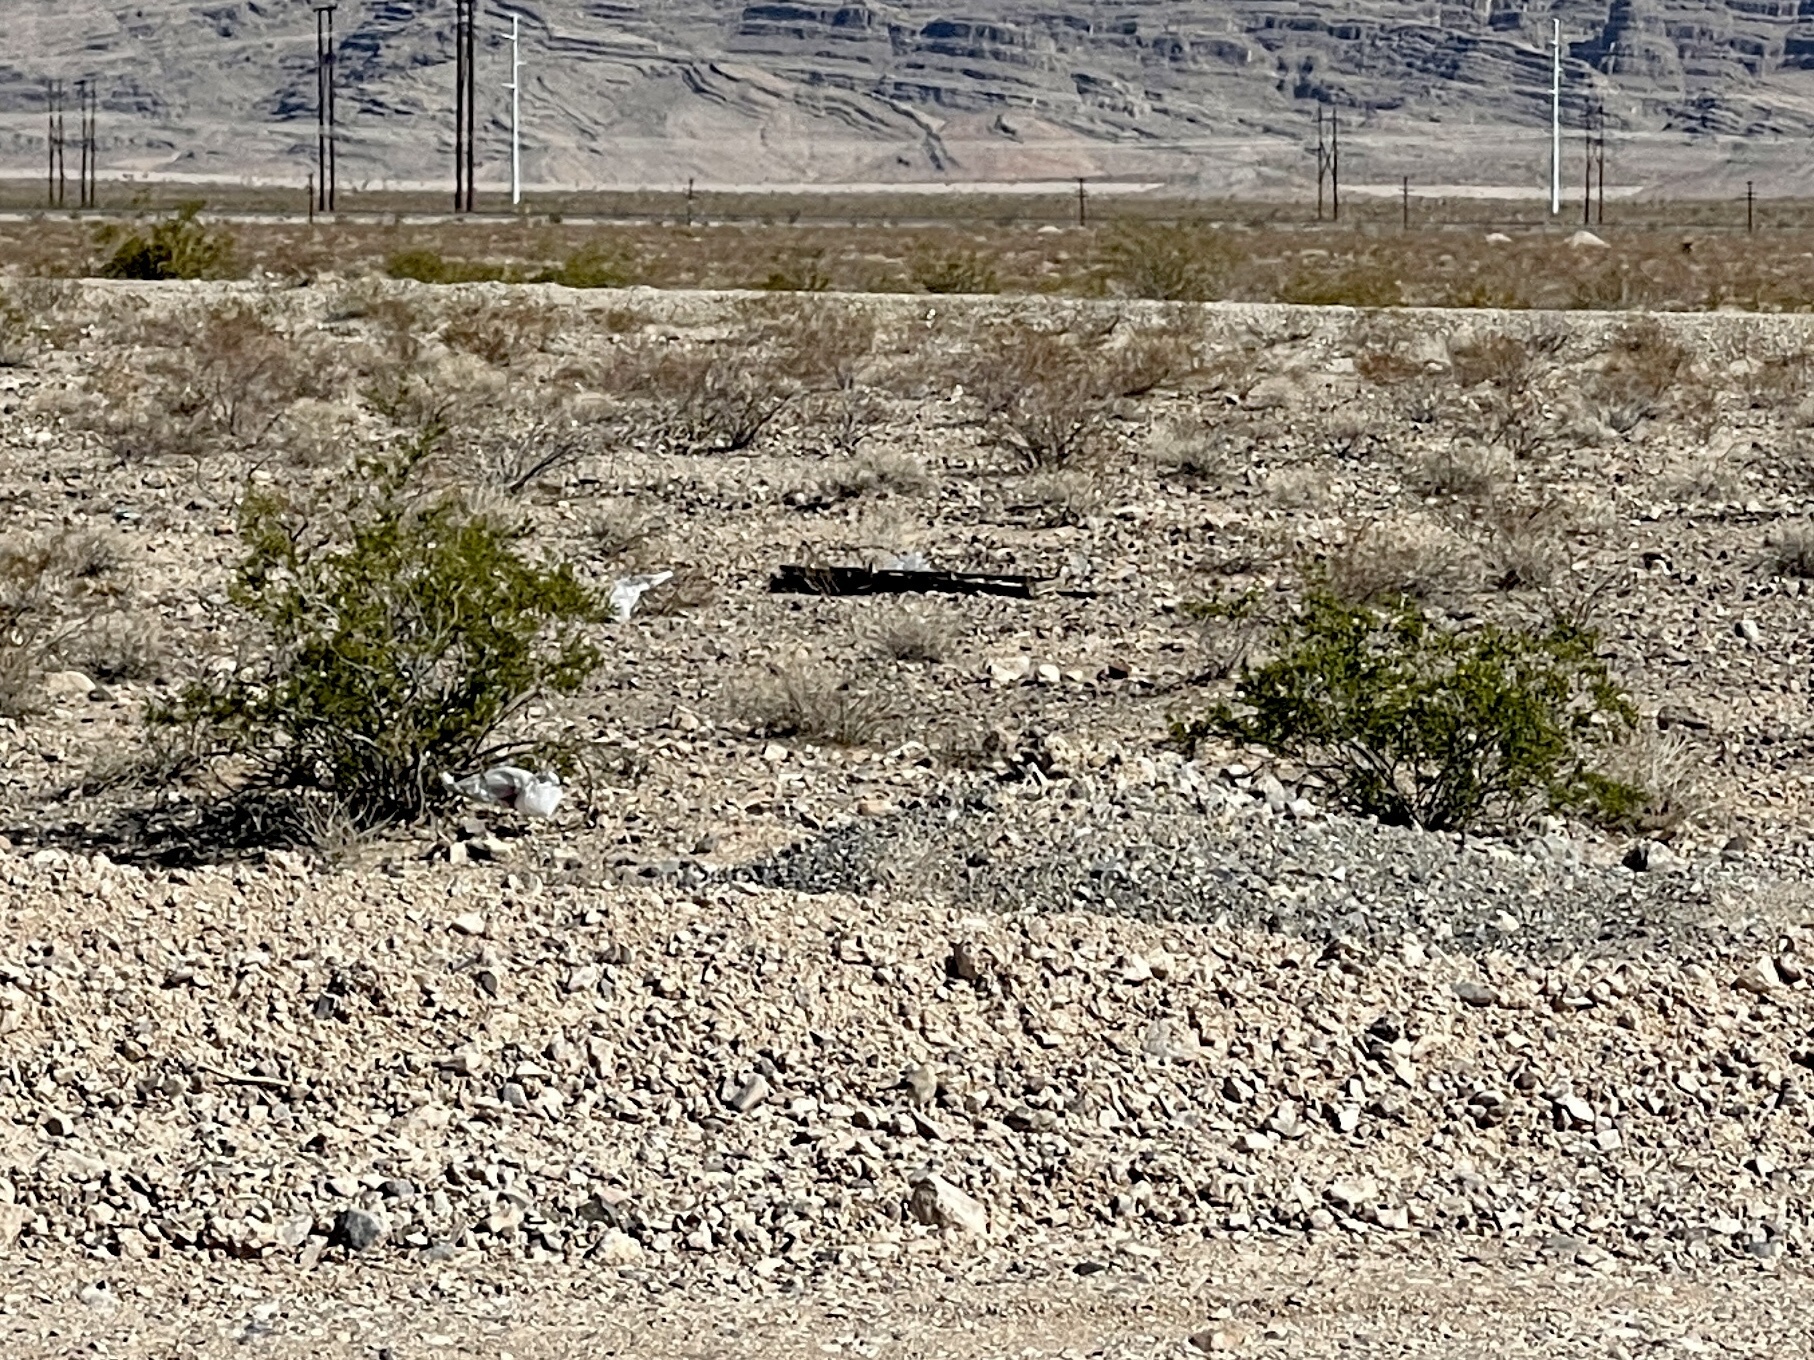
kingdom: Plantae
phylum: Tracheophyta
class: Magnoliopsida
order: Zygophyllales
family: Zygophyllaceae
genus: Larrea
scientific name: Larrea tridentata
